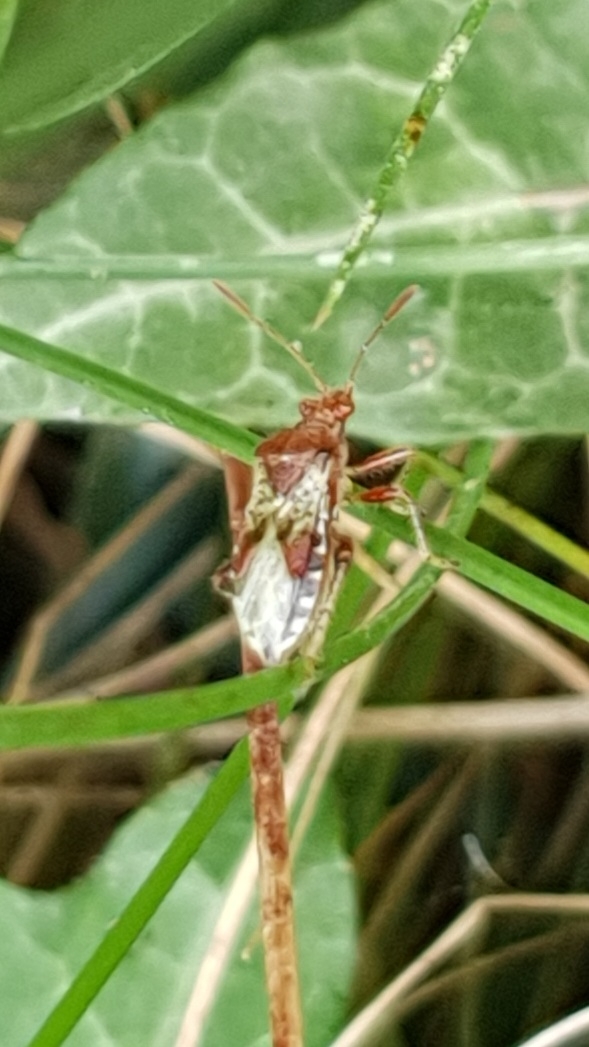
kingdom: Animalia
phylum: Arthropoda
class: Insecta
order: Hemiptera
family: Rhopalidae
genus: Rhopalus
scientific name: Rhopalus subrufus
